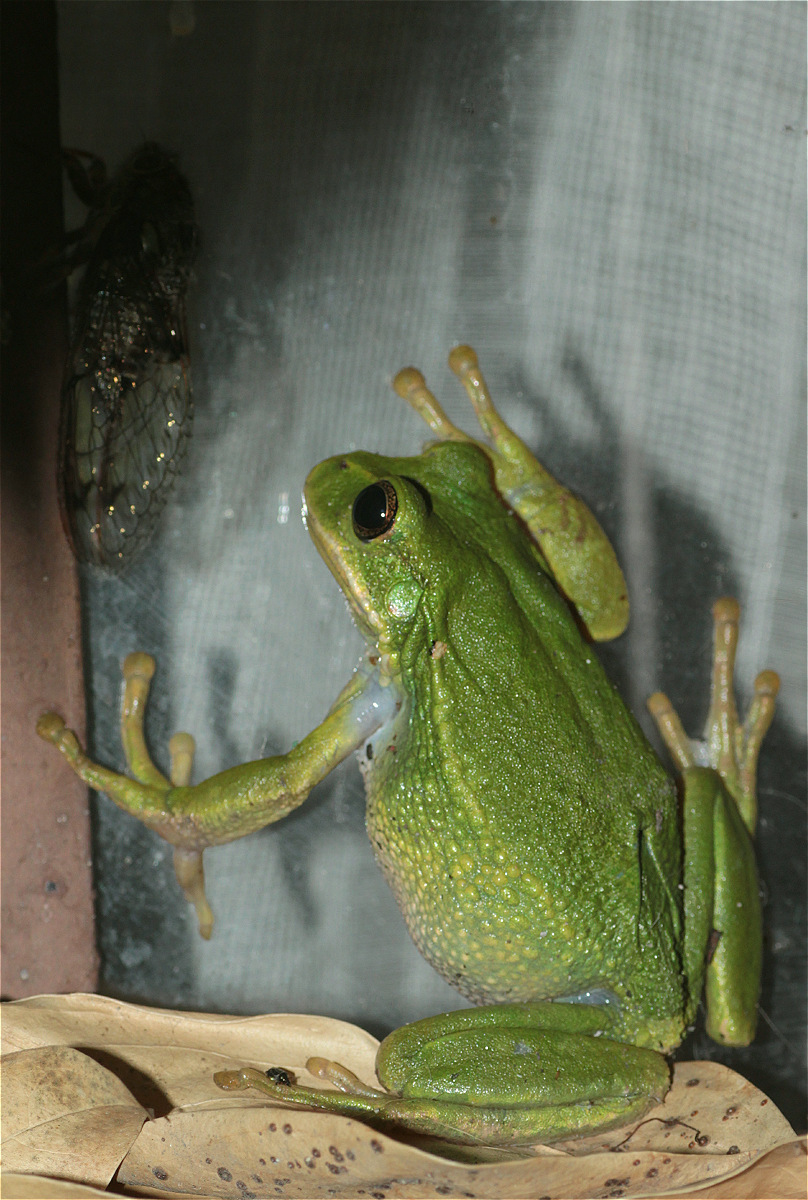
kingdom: Animalia
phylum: Chordata
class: Amphibia
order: Anura
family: Hemiphractidae
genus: Gastrotheca
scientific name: Gastrotheca cuencana
